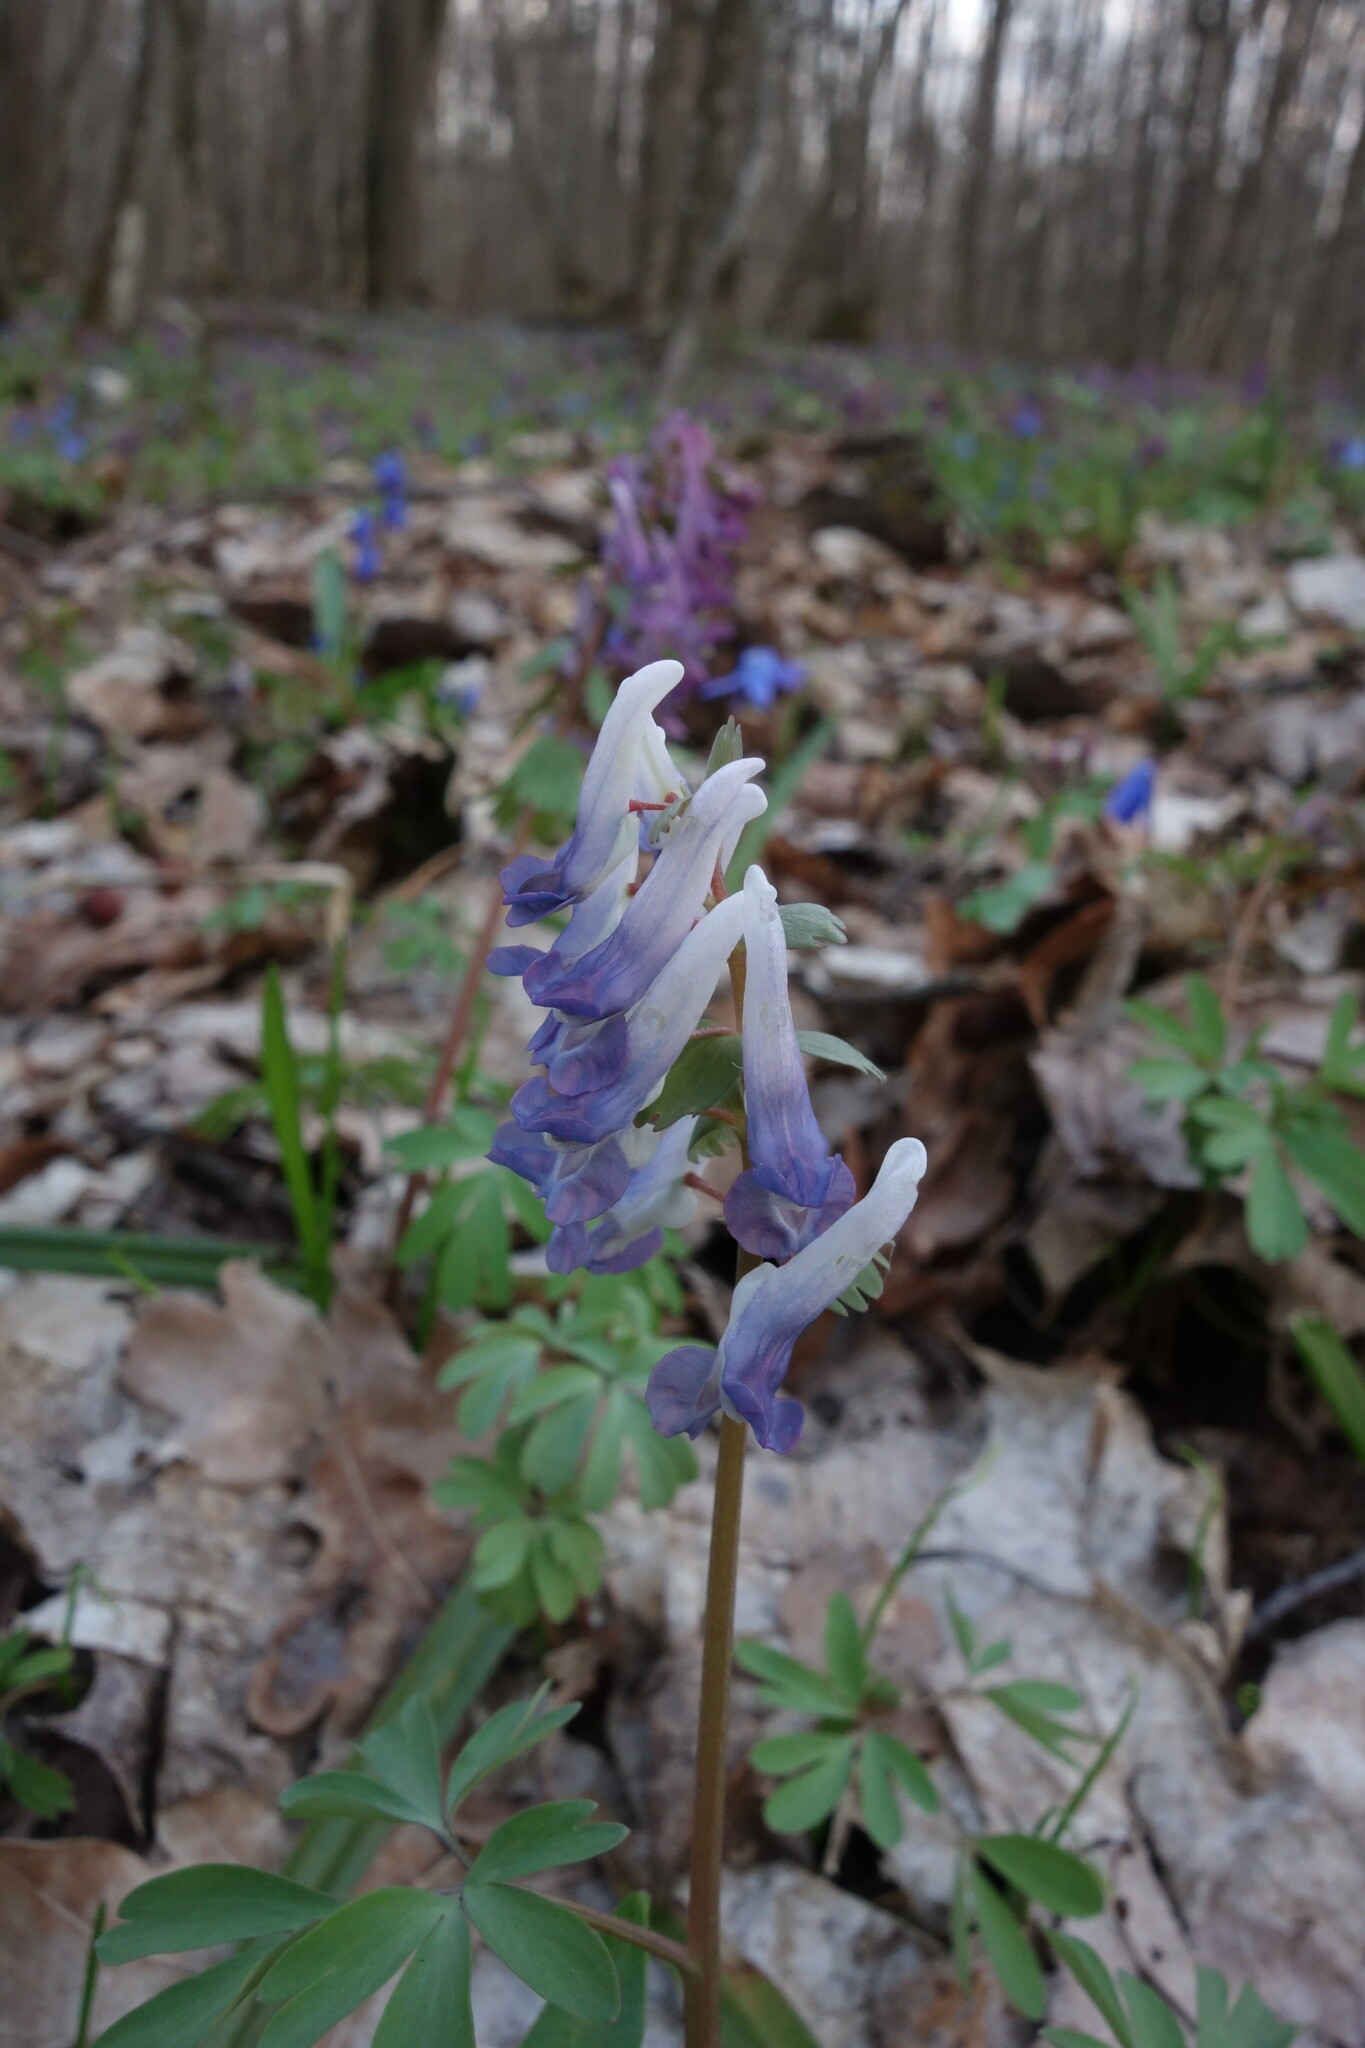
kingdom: Plantae
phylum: Tracheophyta
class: Magnoliopsida
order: Ranunculales
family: Papaveraceae
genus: Corydalis
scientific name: Corydalis solida
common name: Bird-in-a-bush
